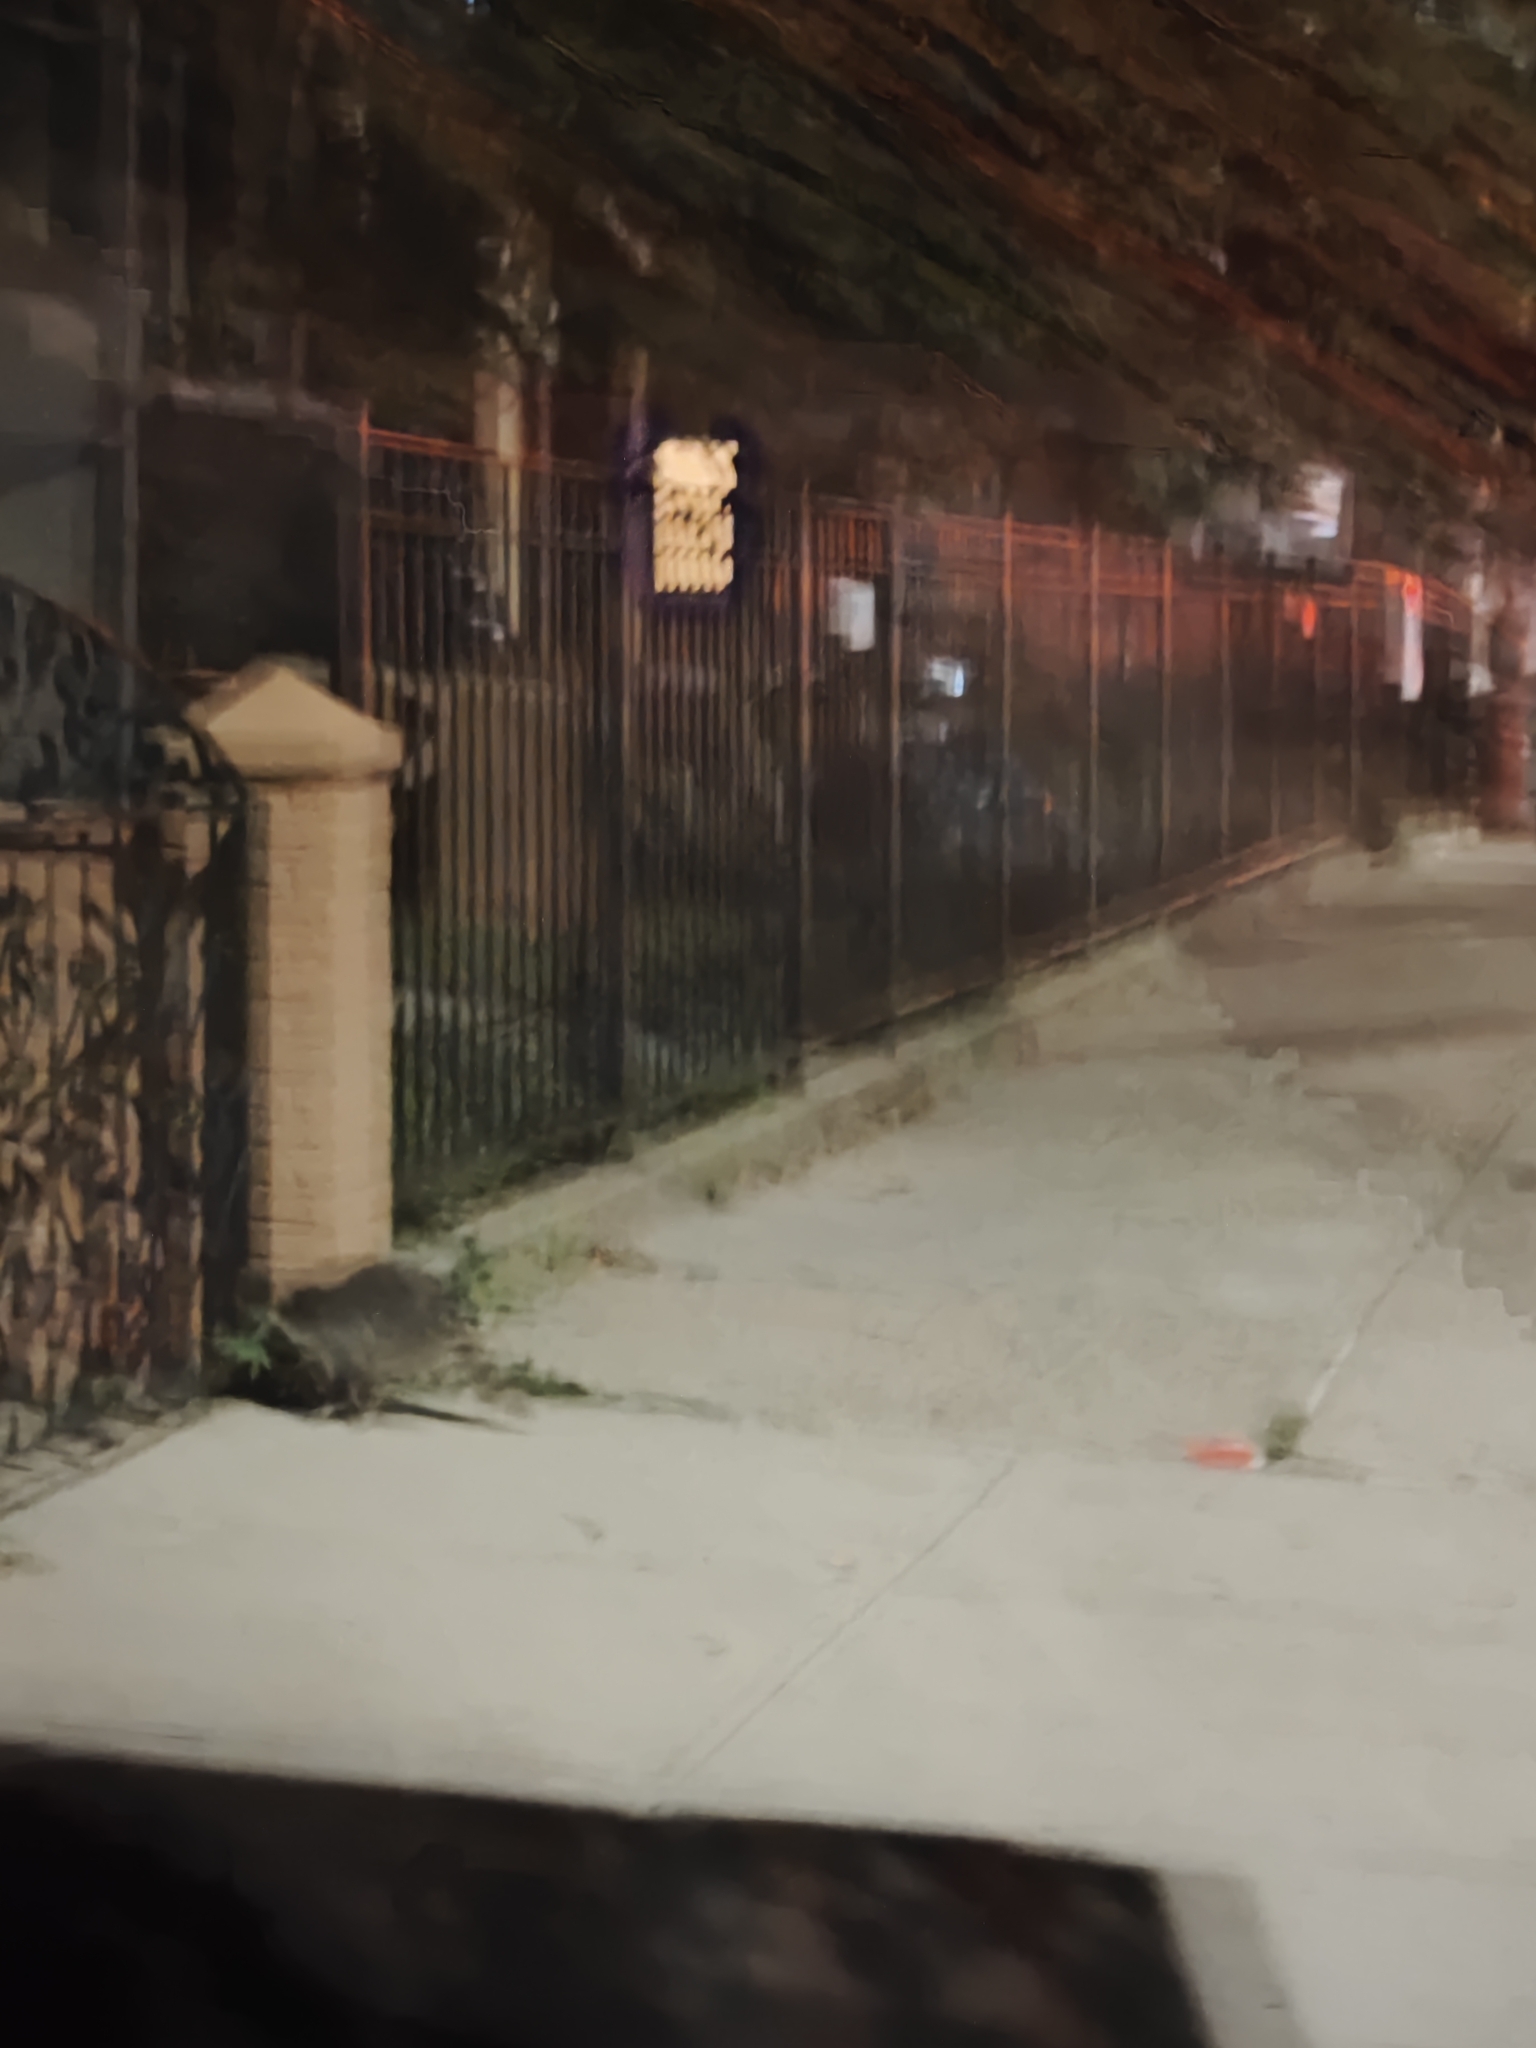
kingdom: Animalia
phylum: Chordata
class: Mammalia
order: Carnivora
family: Procyonidae
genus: Procyon
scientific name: Procyon lotor
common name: Raccoon
